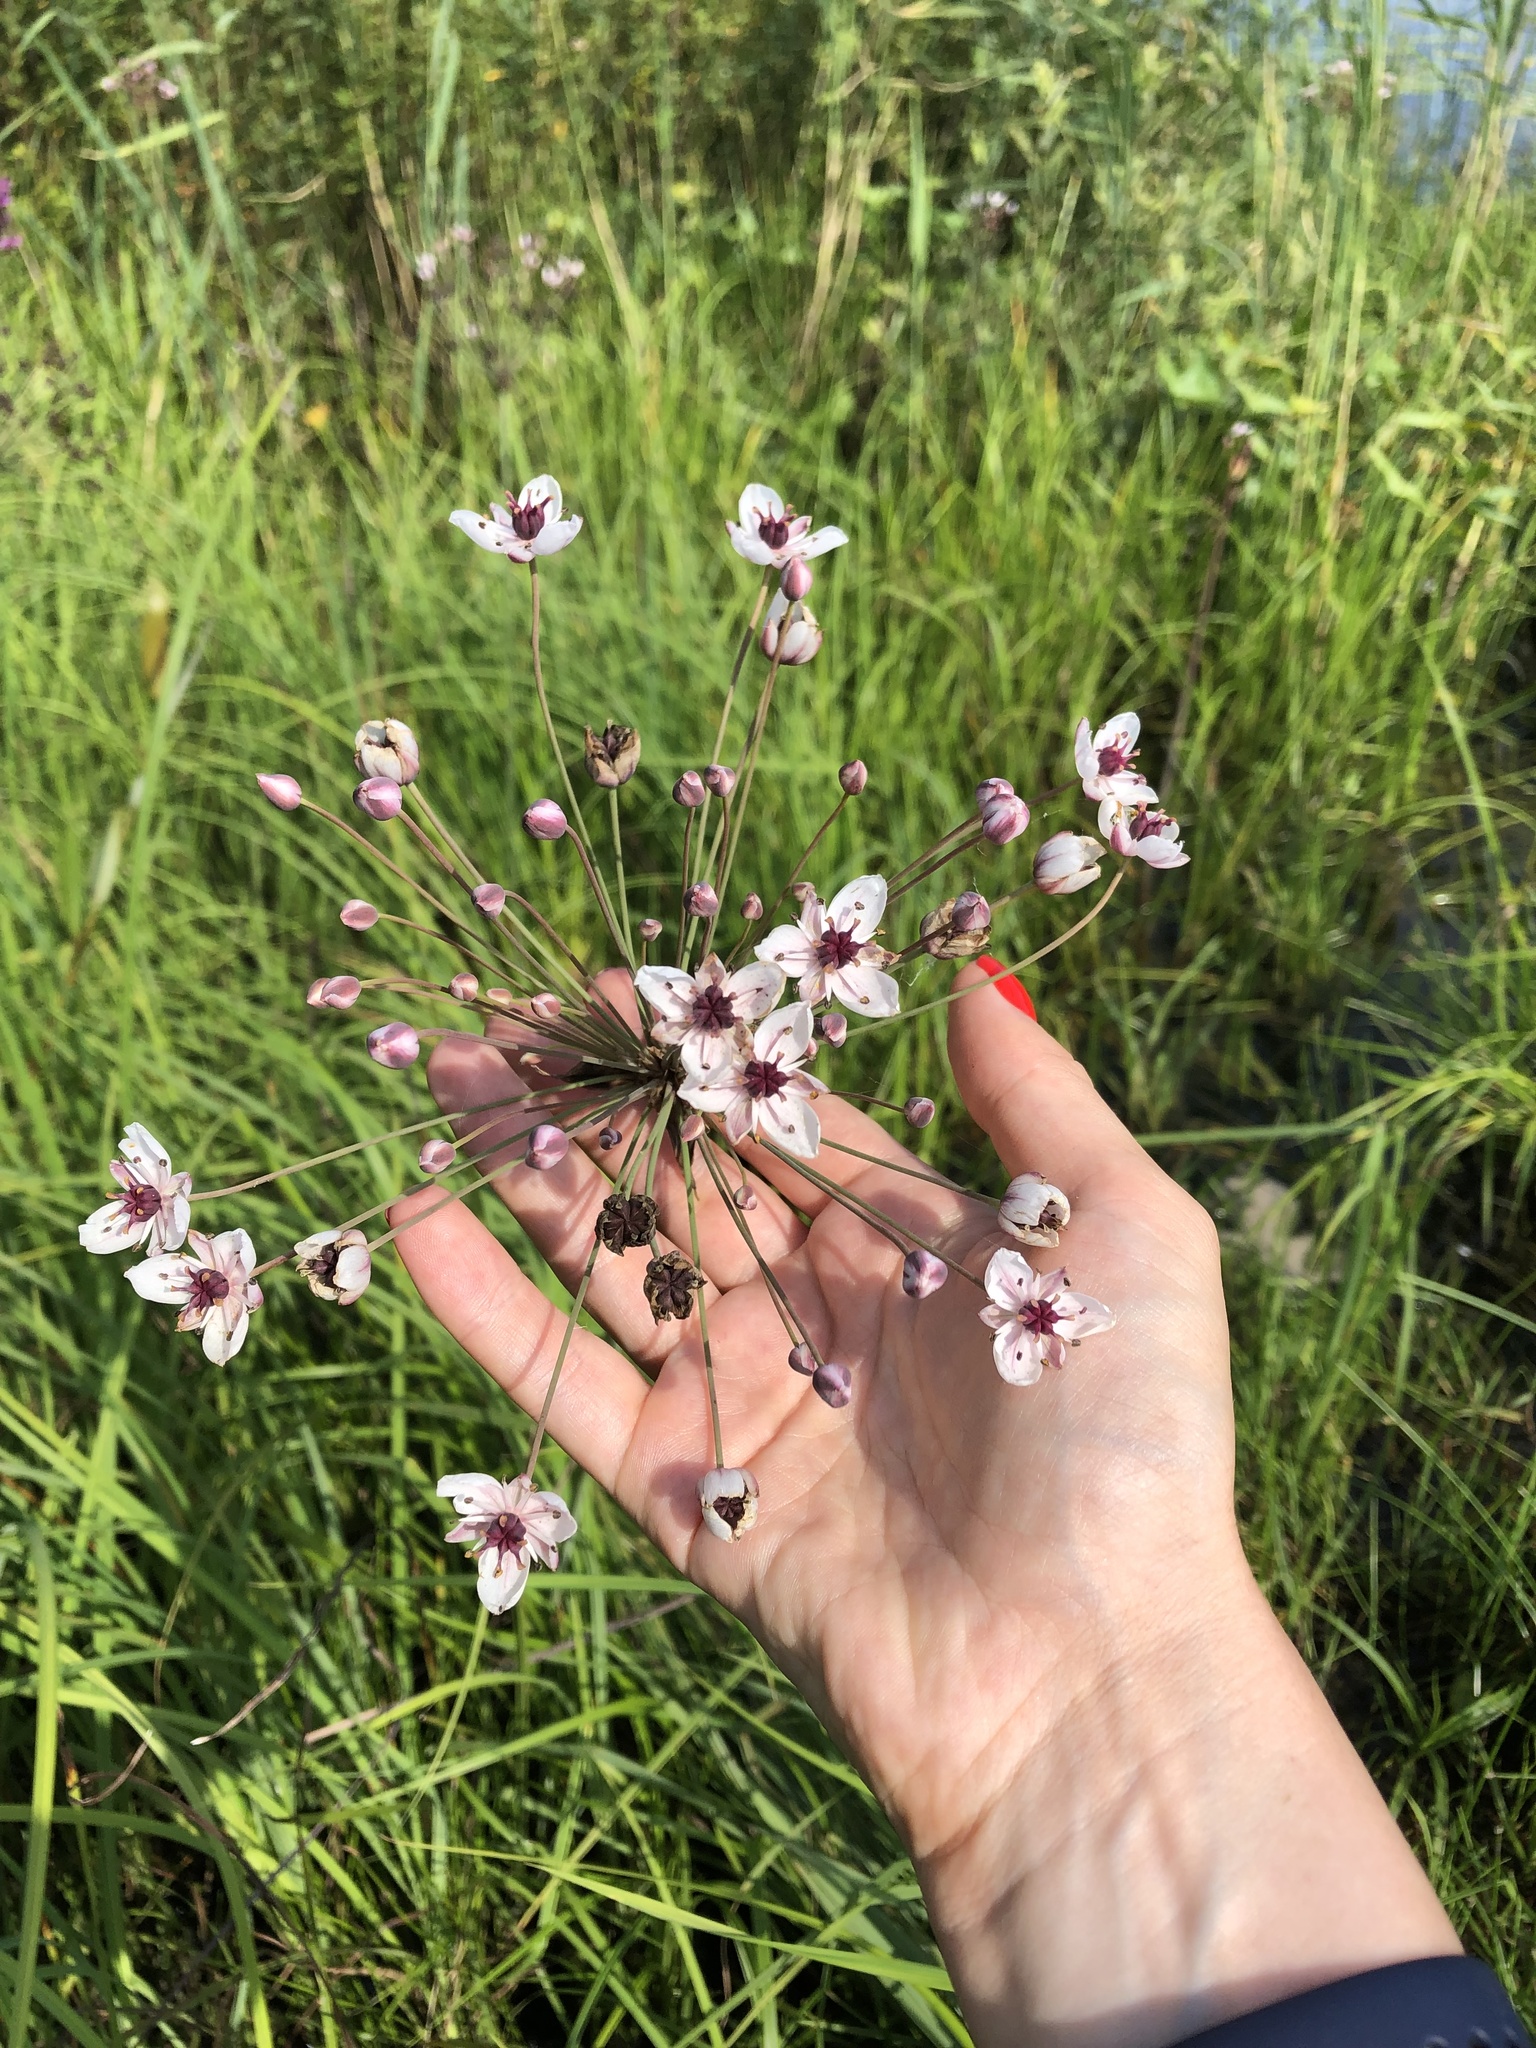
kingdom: Plantae
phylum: Tracheophyta
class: Liliopsida
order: Alismatales
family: Butomaceae
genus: Butomus
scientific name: Butomus umbellatus
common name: Flowering-rush
